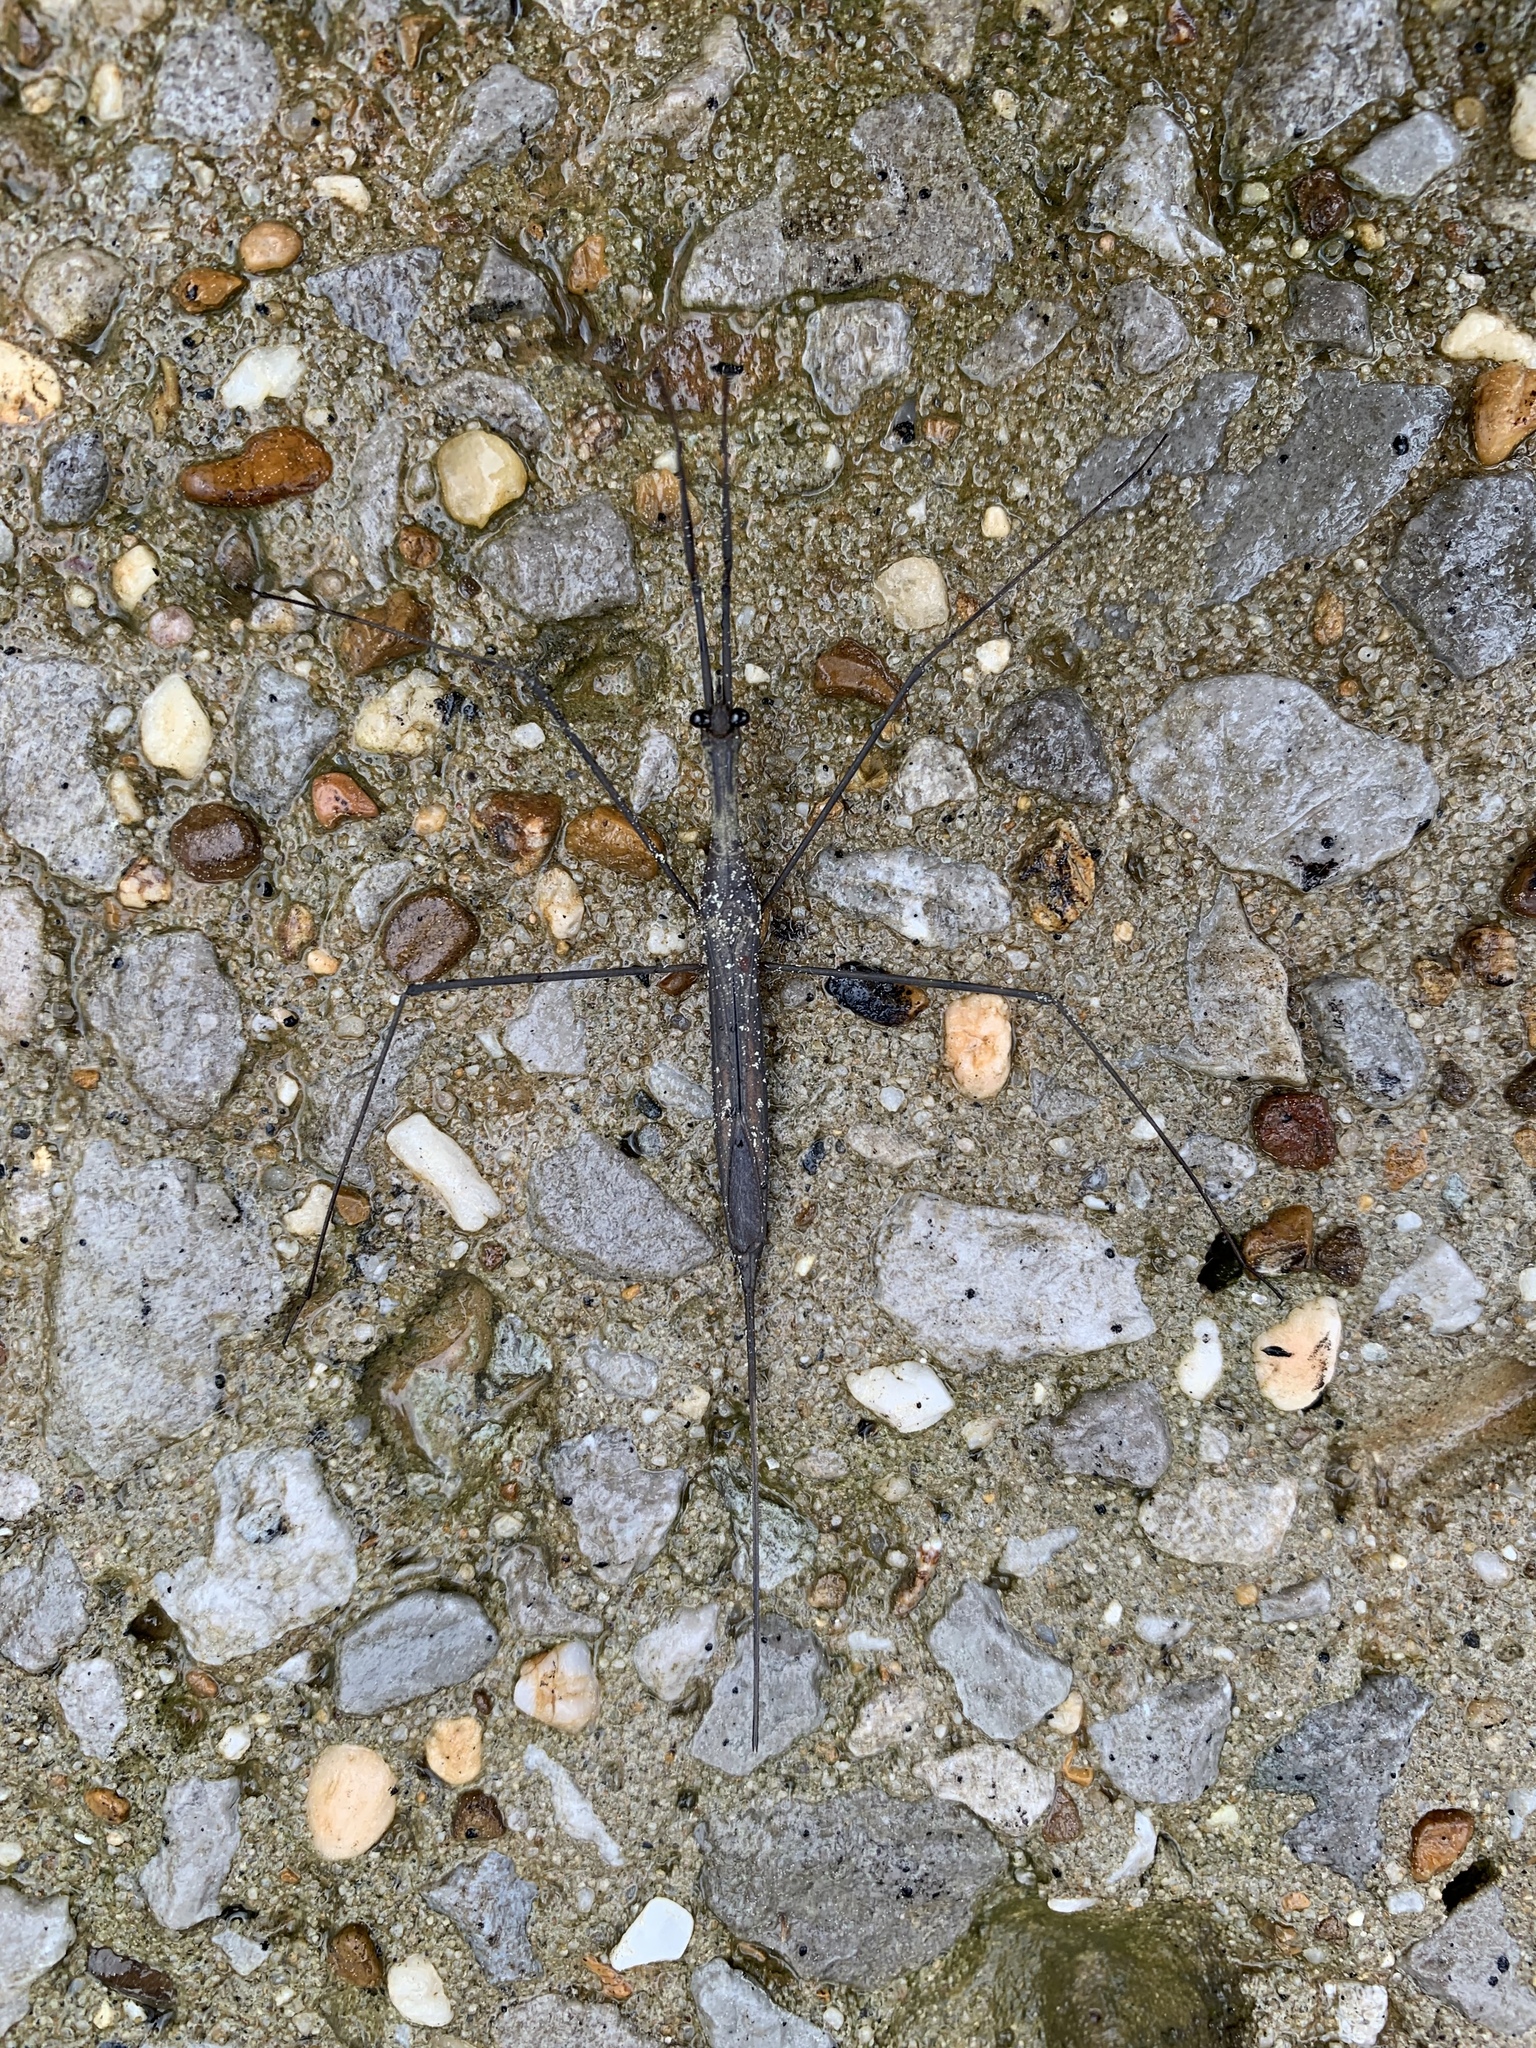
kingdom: Animalia
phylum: Arthropoda
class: Insecta
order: Hemiptera
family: Nepidae
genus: Ranatra
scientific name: Ranatra
